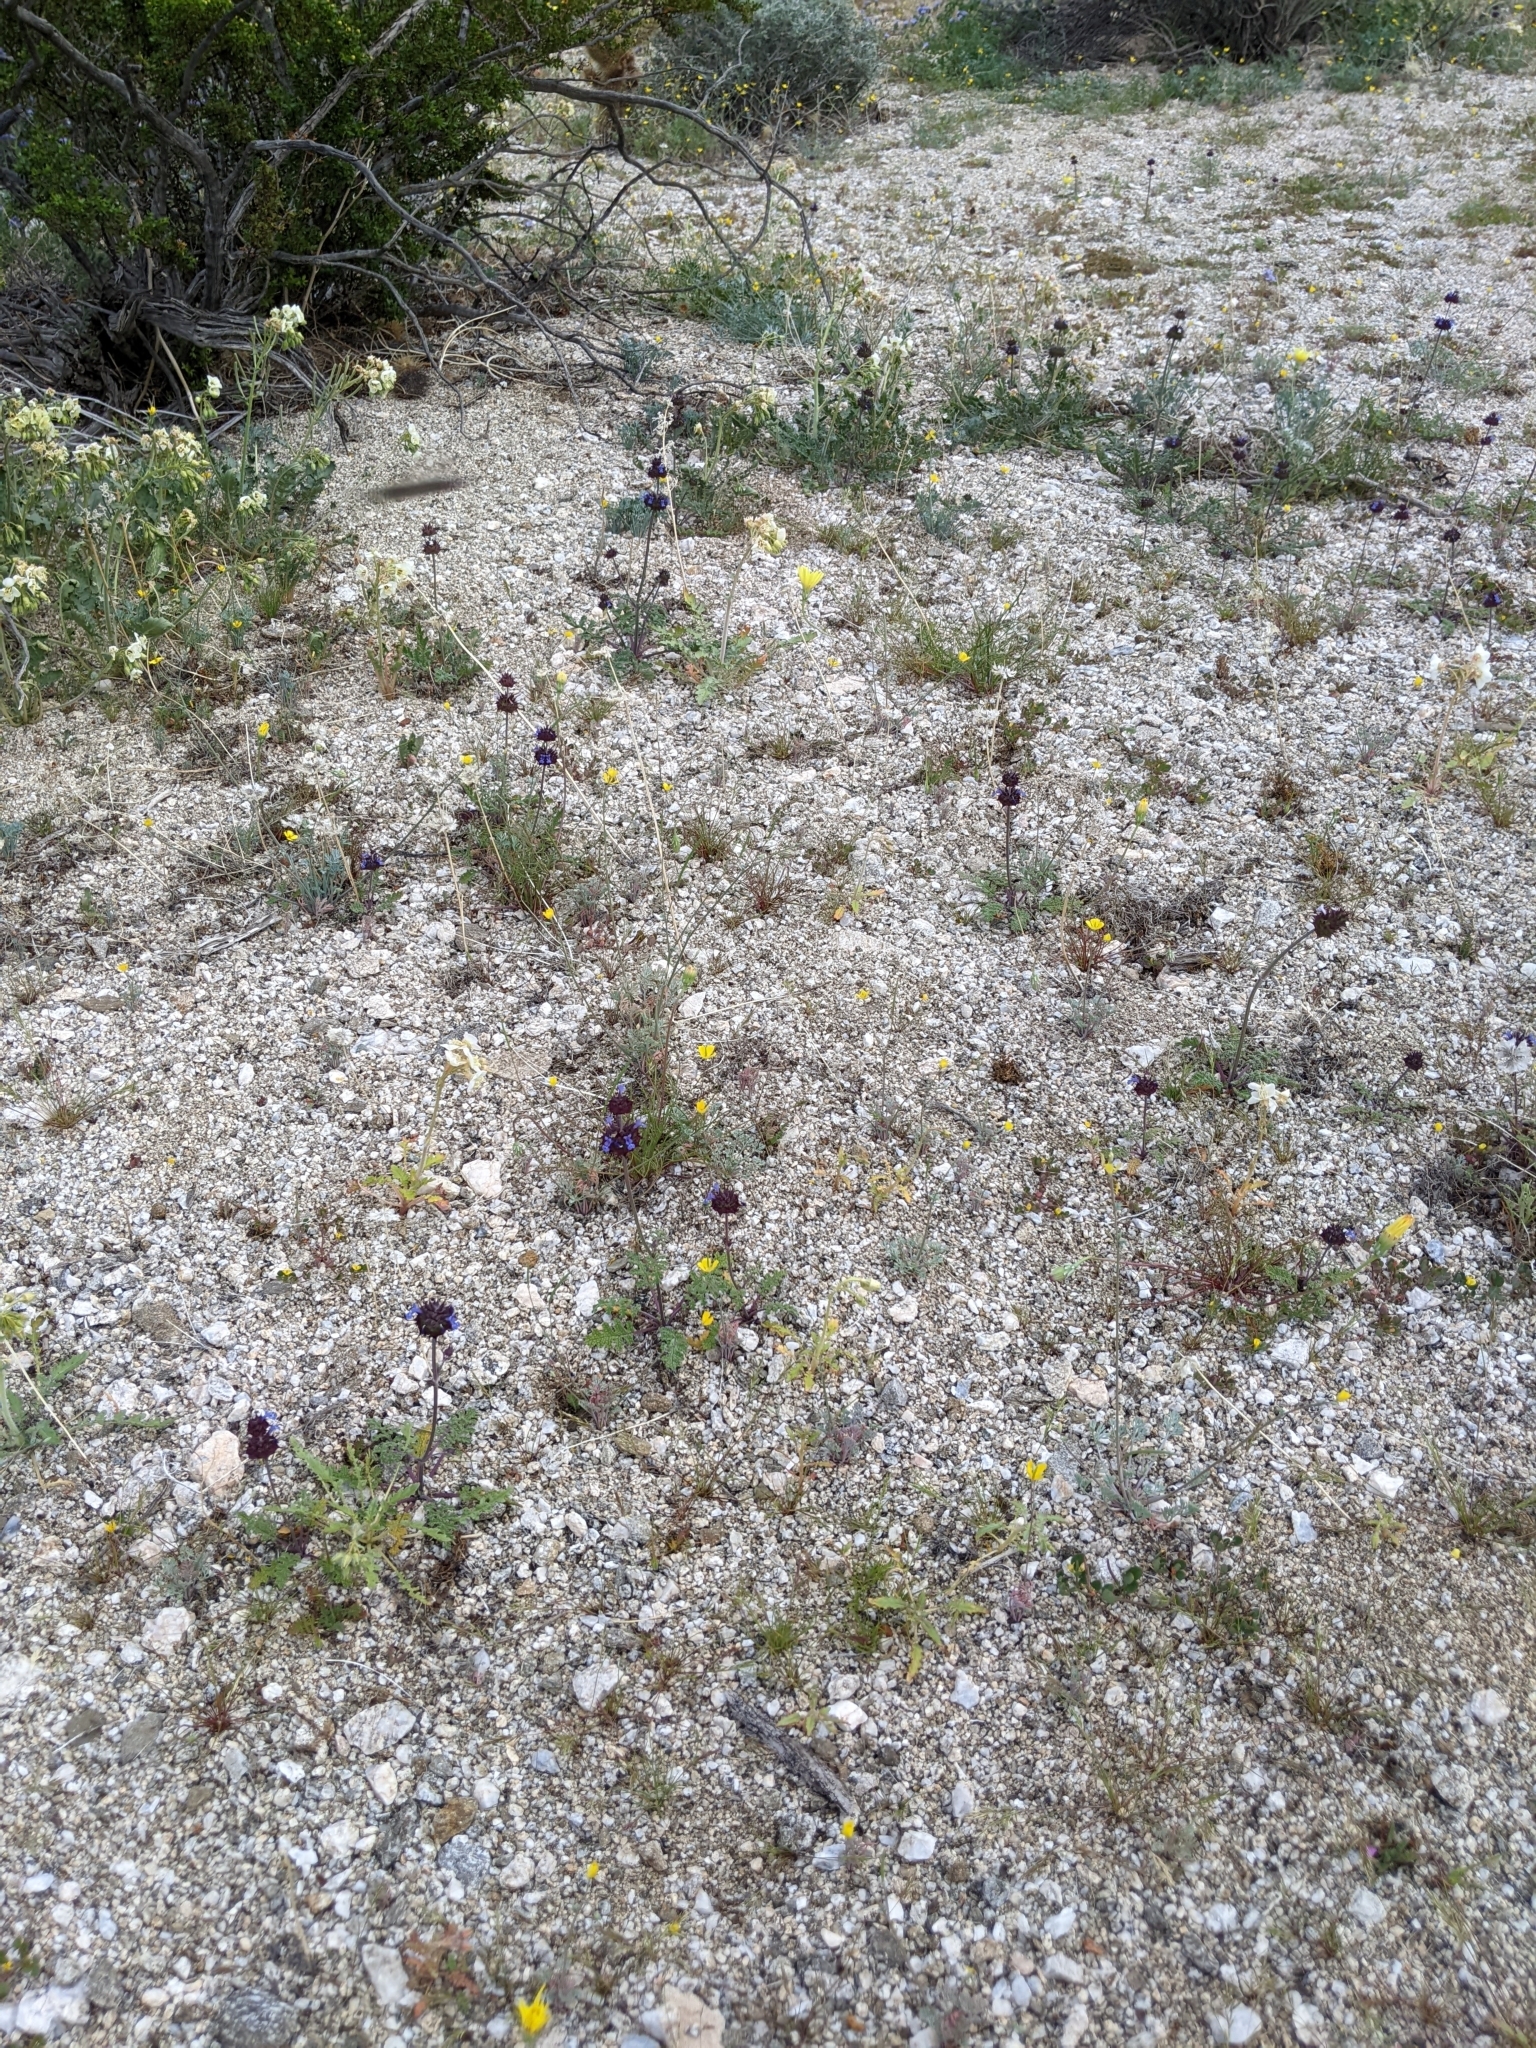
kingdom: Plantae
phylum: Tracheophyta
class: Magnoliopsida
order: Lamiales
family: Lamiaceae
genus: Salvia
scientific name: Salvia columbariae
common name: Chia
